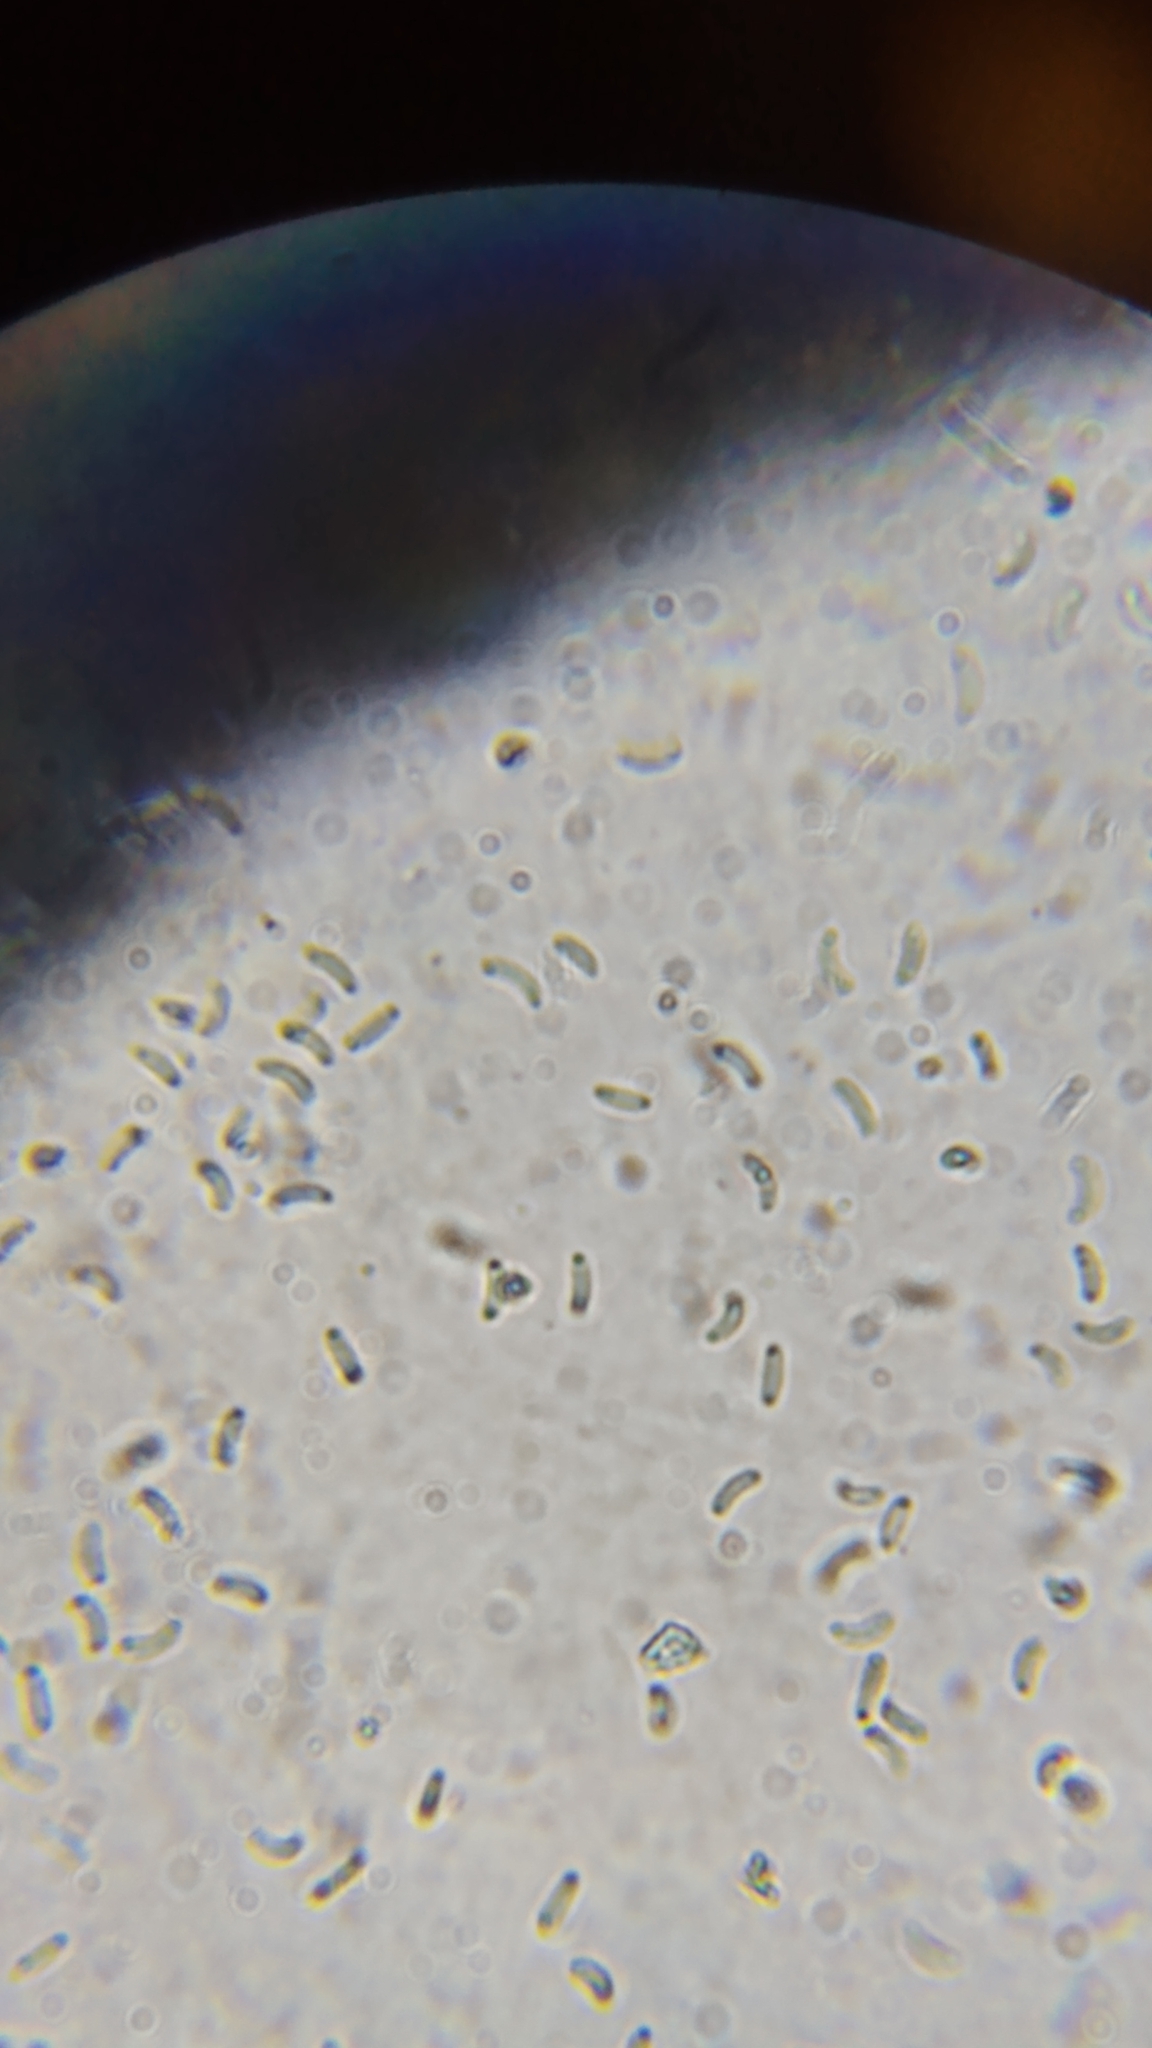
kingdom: Fungi
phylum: Ascomycota
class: Sordariomycetes
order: Xylariales
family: Diatrypaceae
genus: Peroneutypa
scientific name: Peroneutypa scoparia
